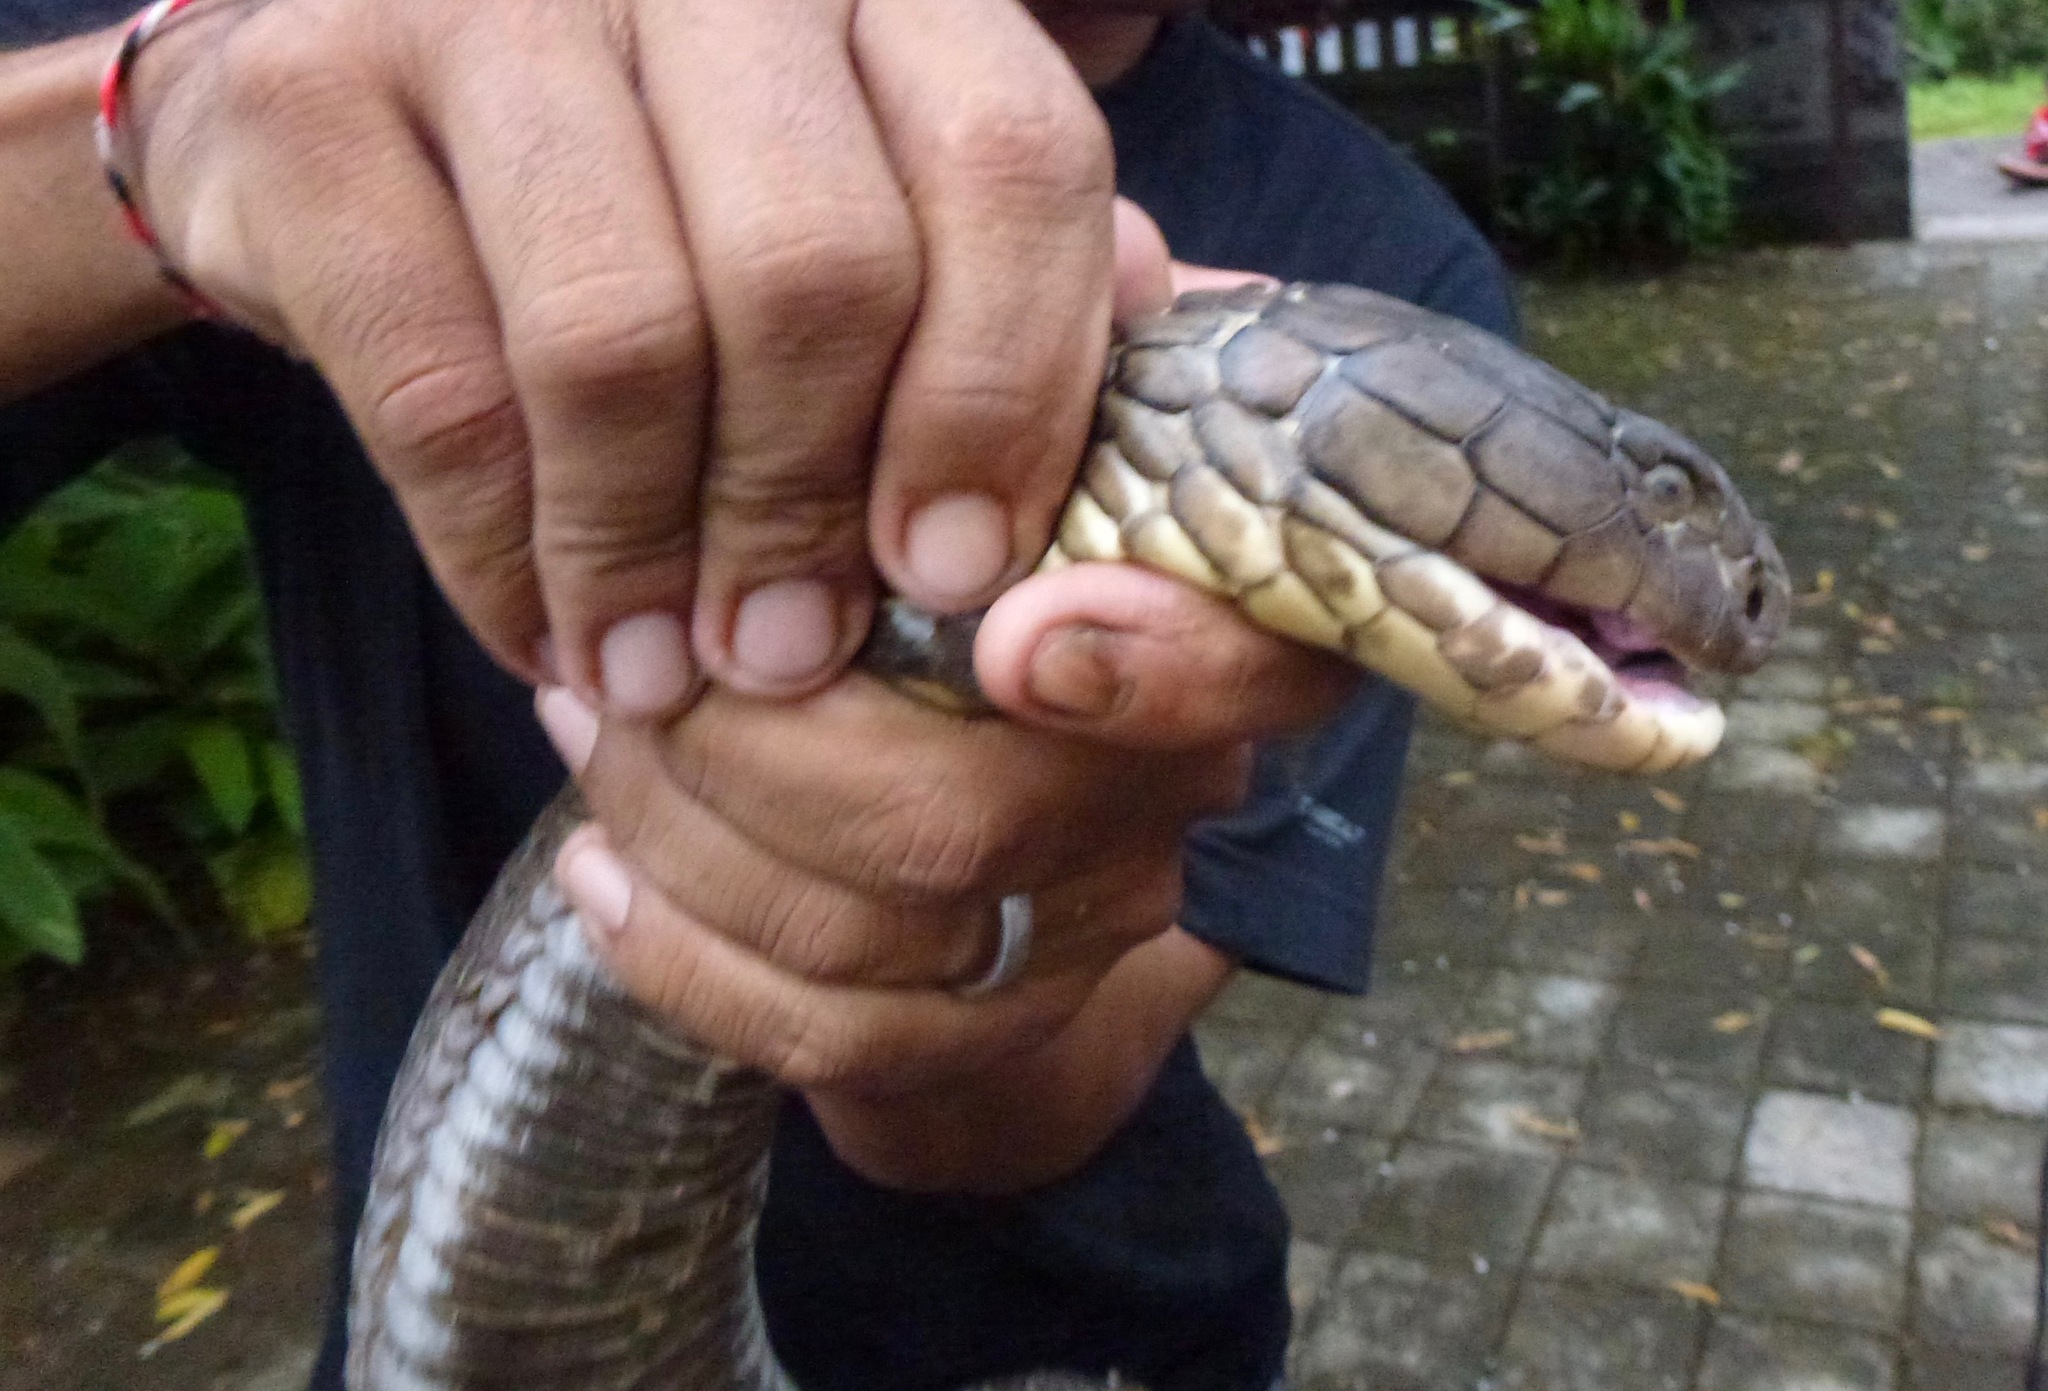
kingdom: Animalia
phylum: Chordata
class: Squamata
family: Elapidae
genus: Ophiophagus
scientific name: Ophiophagus hannah
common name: Hamadryad
